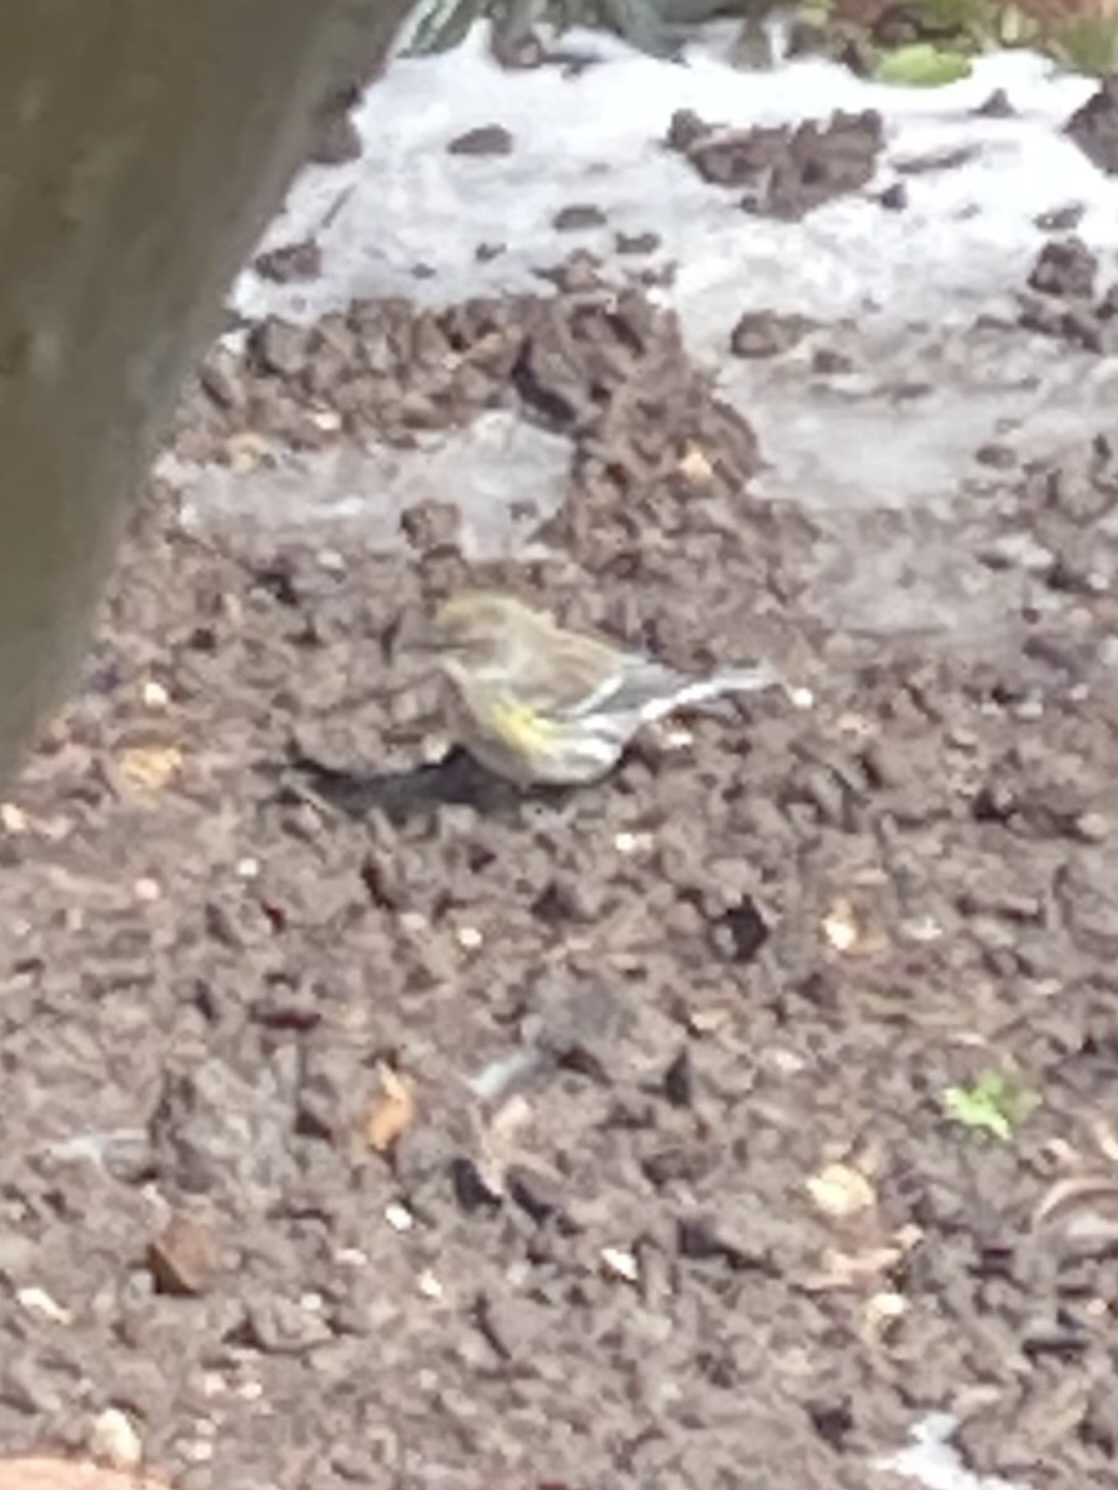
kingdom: Animalia
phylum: Chordata
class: Aves
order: Passeriformes
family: Parulidae
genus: Setophaga
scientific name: Setophaga coronata
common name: Myrtle warbler
